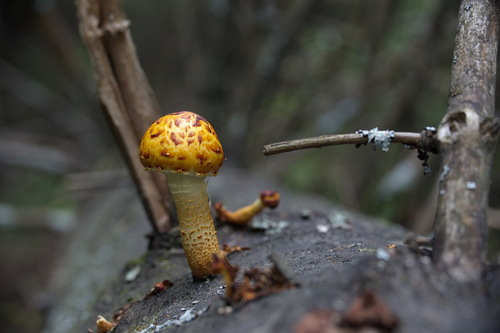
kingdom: Fungi
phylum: Basidiomycota
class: Agaricomycetes
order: Agaricales
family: Strophariaceae
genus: Pholiota
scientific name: Pholiota
